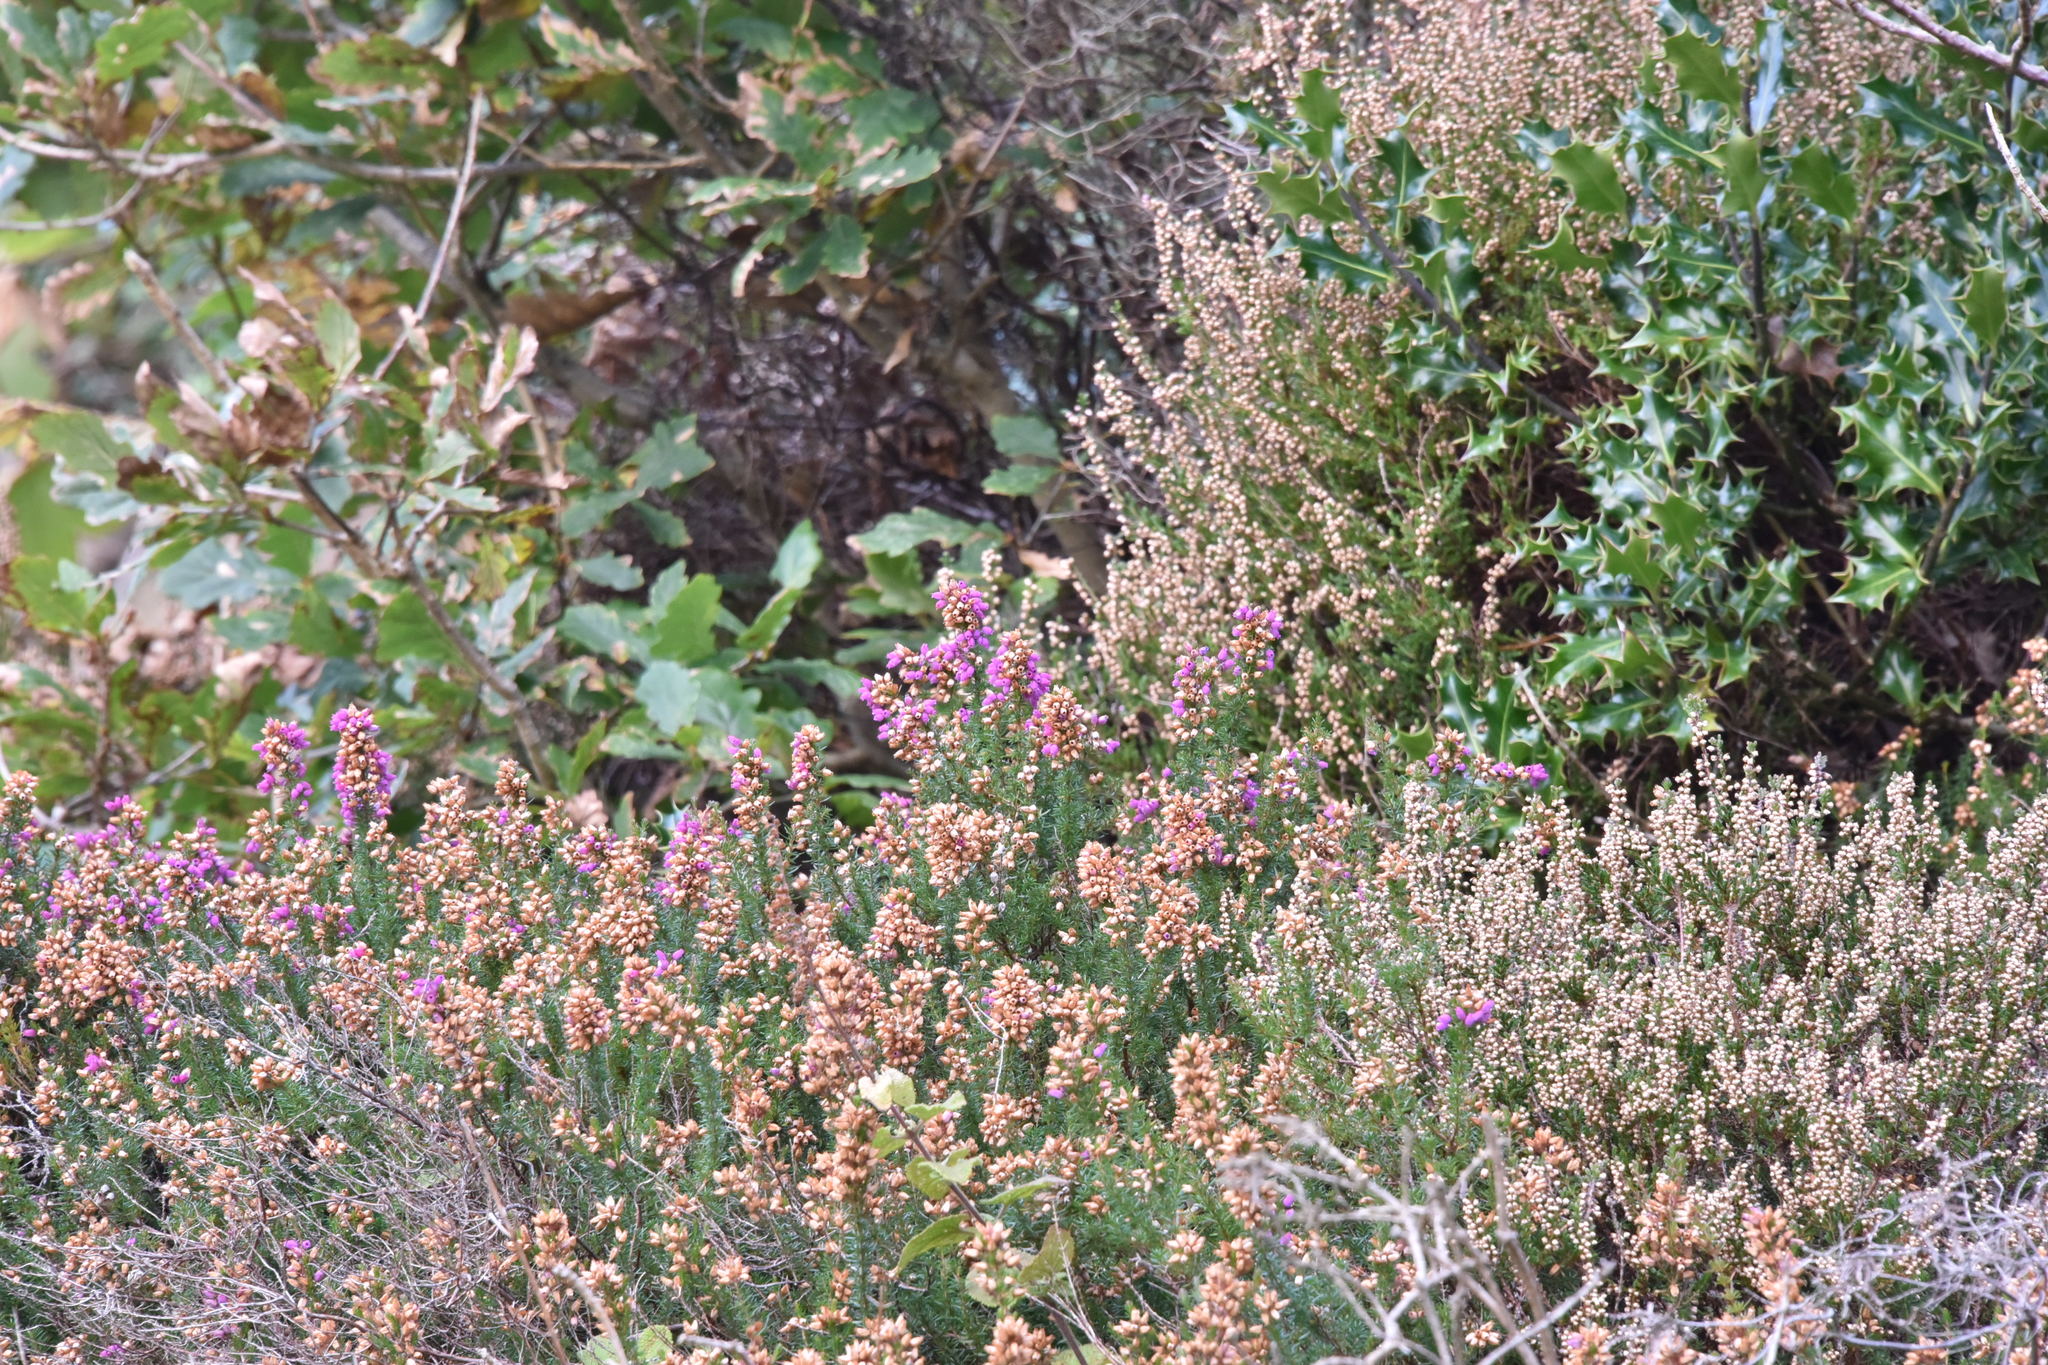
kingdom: Plantae
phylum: Tracheophyta
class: Magnoliopsida
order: Ericales
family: Ericaceae
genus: Calluna
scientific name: Calluna vulgaris
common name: Heather
